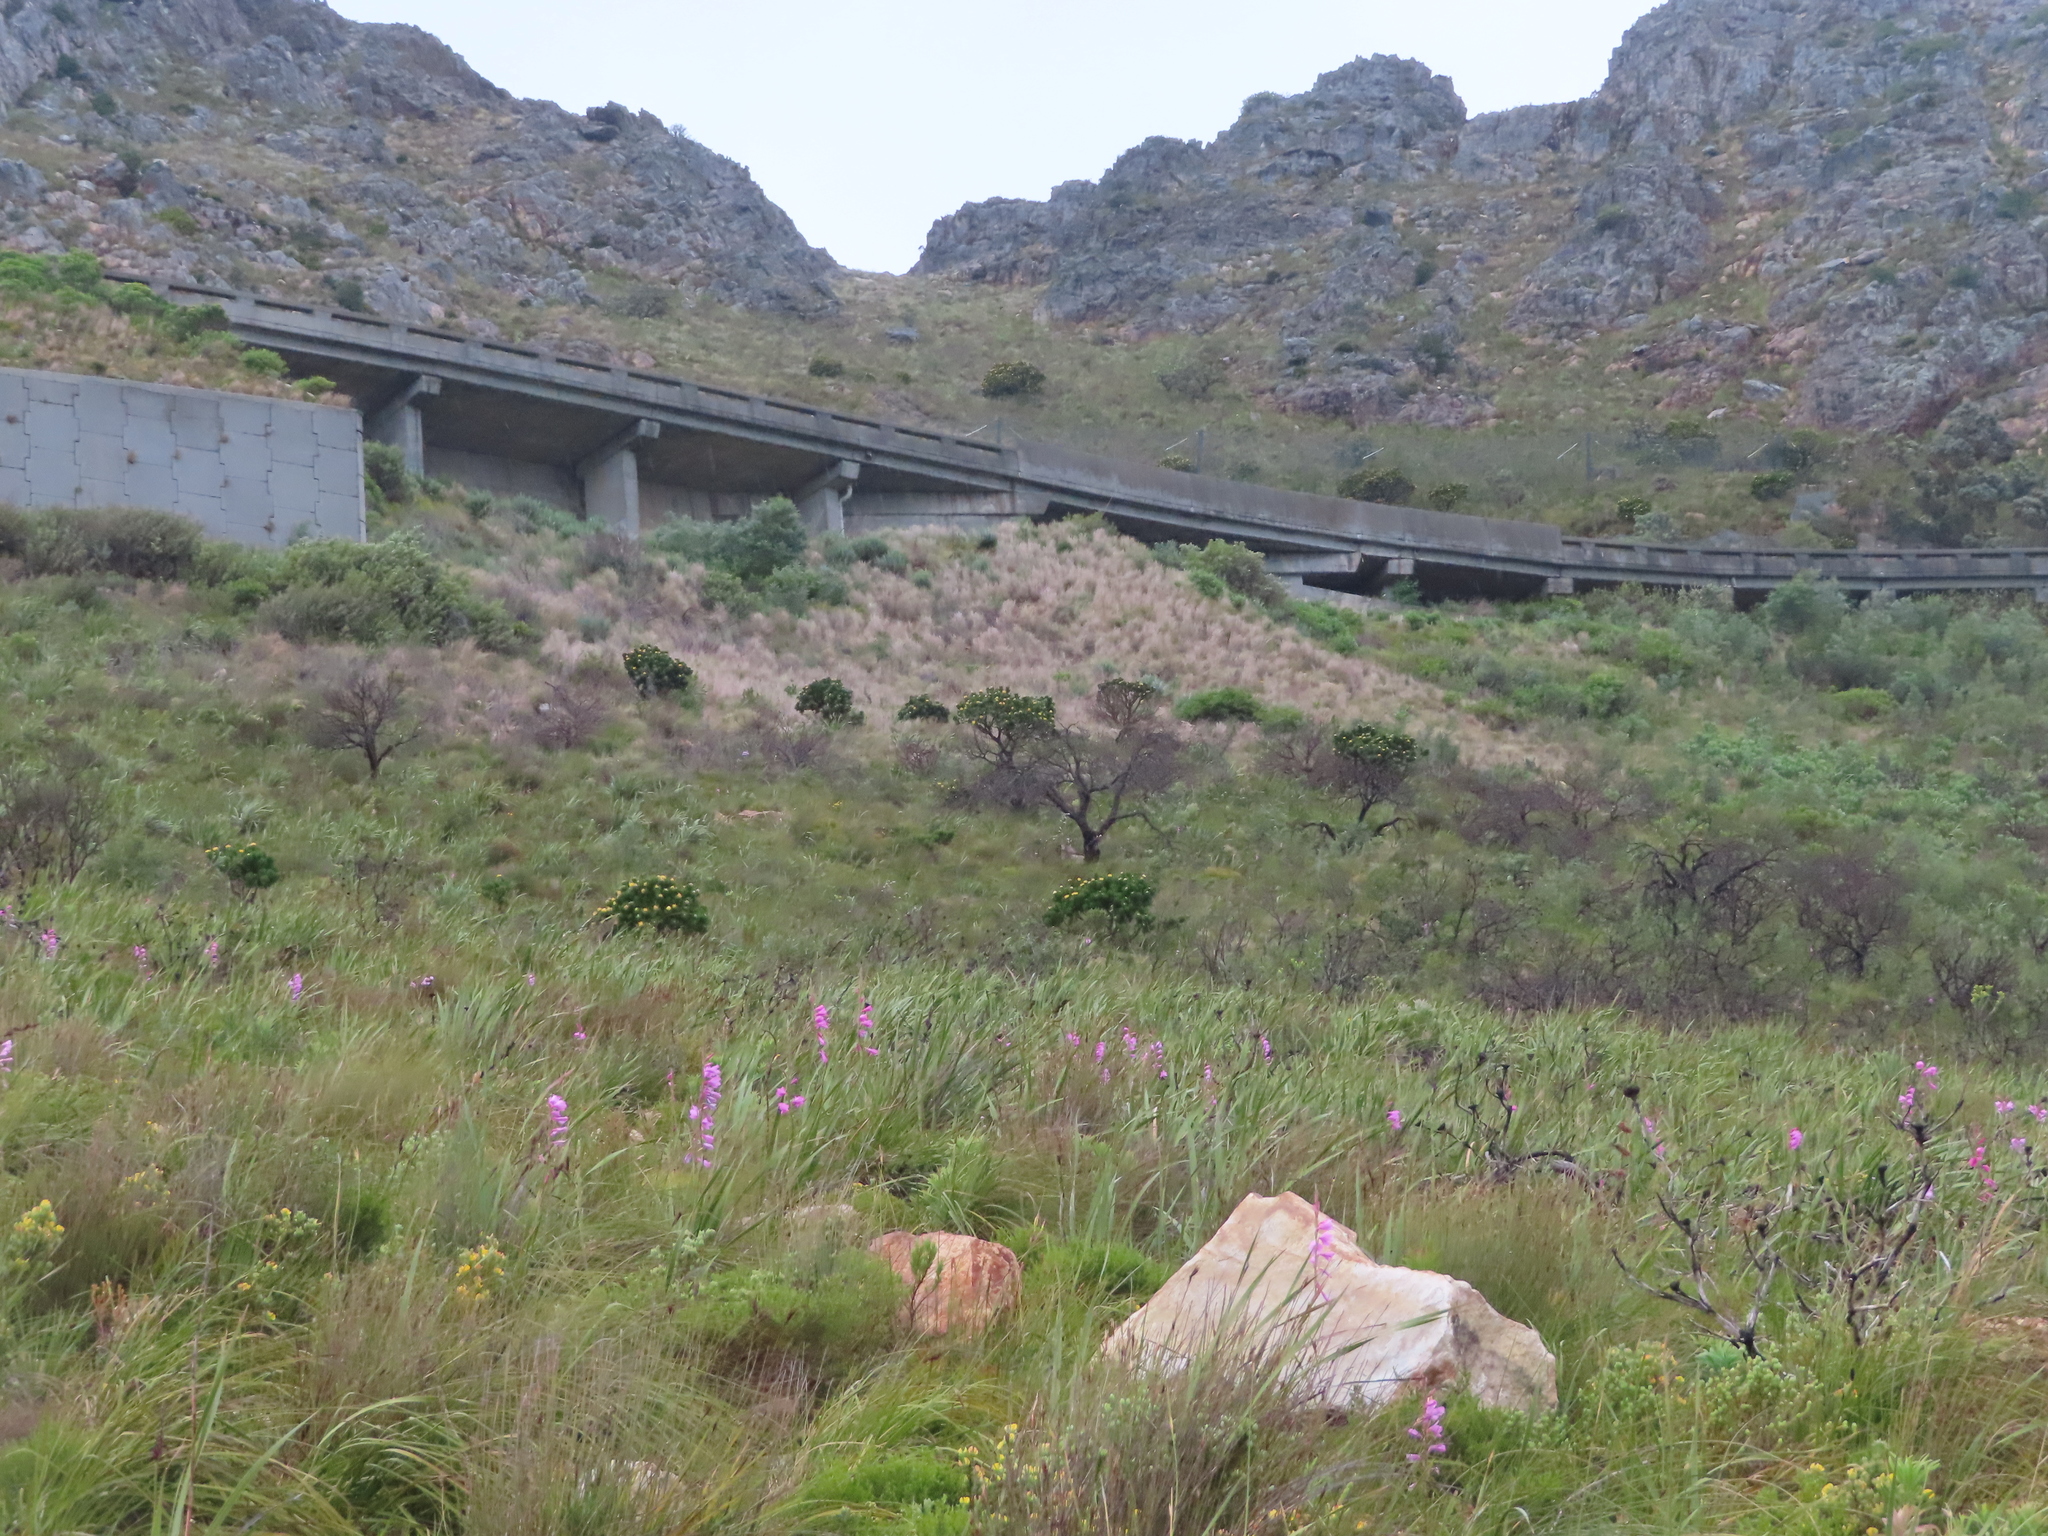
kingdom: Plantae
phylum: Tracheophyta
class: Magnoliopsida
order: Proteales
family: Proteaceae
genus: Leucospermum
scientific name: Leucospermum conocarpodendron
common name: Tree pincushion
